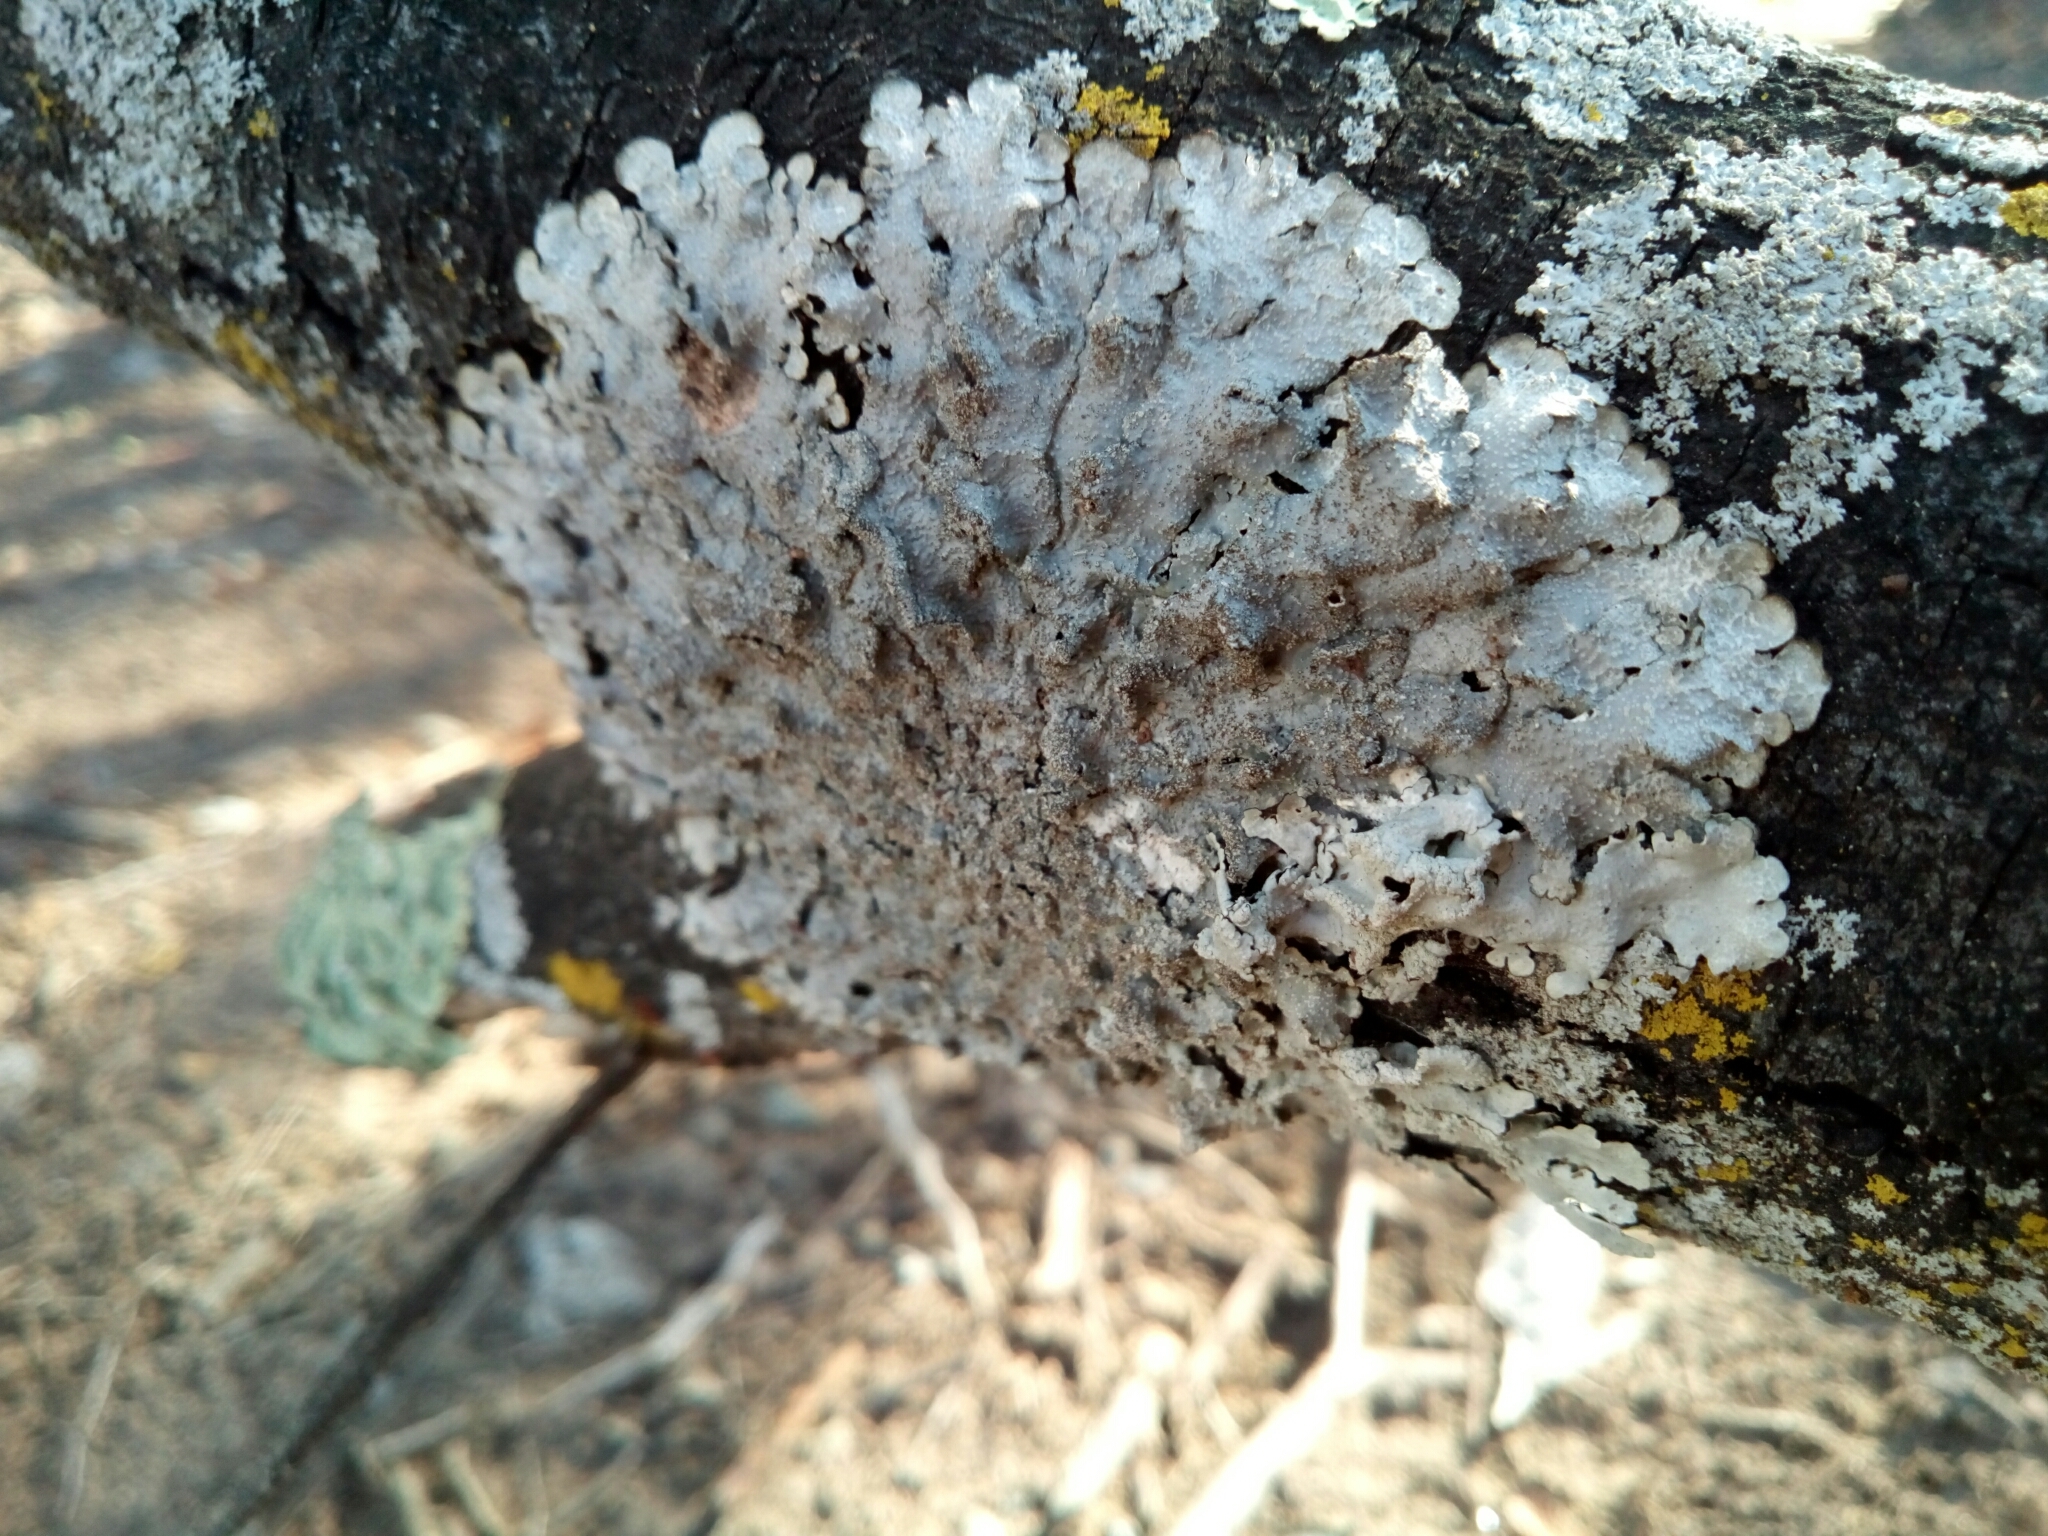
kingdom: Fungi
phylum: Ascomycota
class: Lecanoromycetes
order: Lecanorales
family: Parmeliaceae
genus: Punctelia
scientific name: Punctelia rudecta
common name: Rough speckled shield lichen
